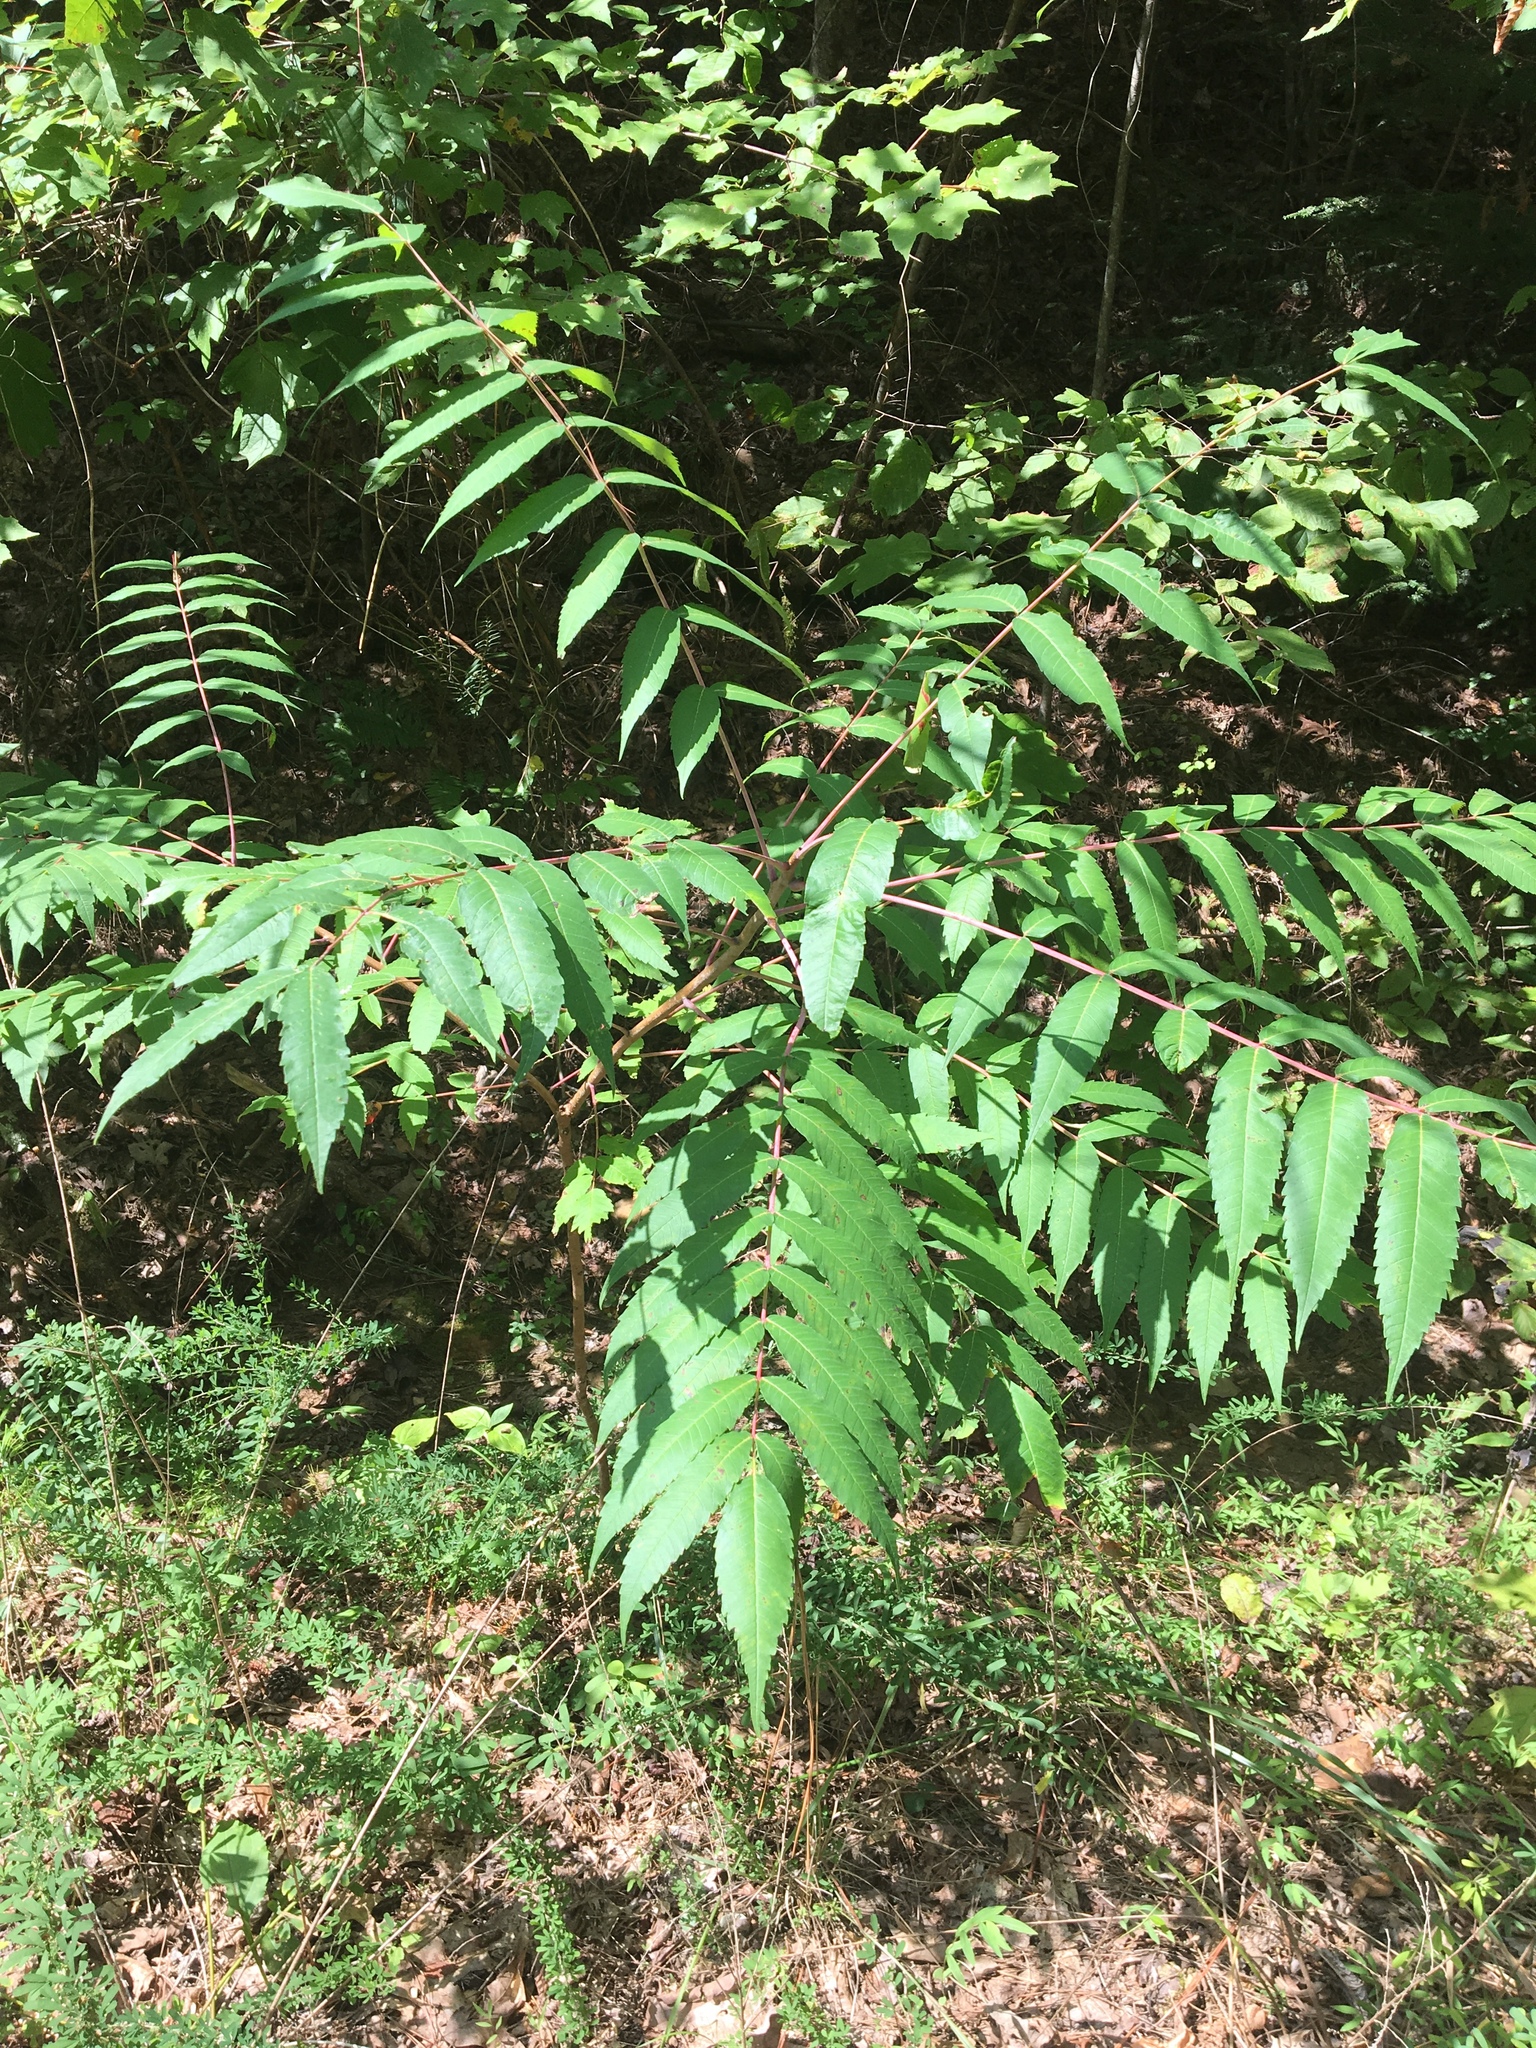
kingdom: Plantae
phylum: Tracheophyta
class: Magnoliopsida
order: Sapindales
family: Anacardiaceae
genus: Rhus
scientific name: Rhus glabra
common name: Scarlet sumac
